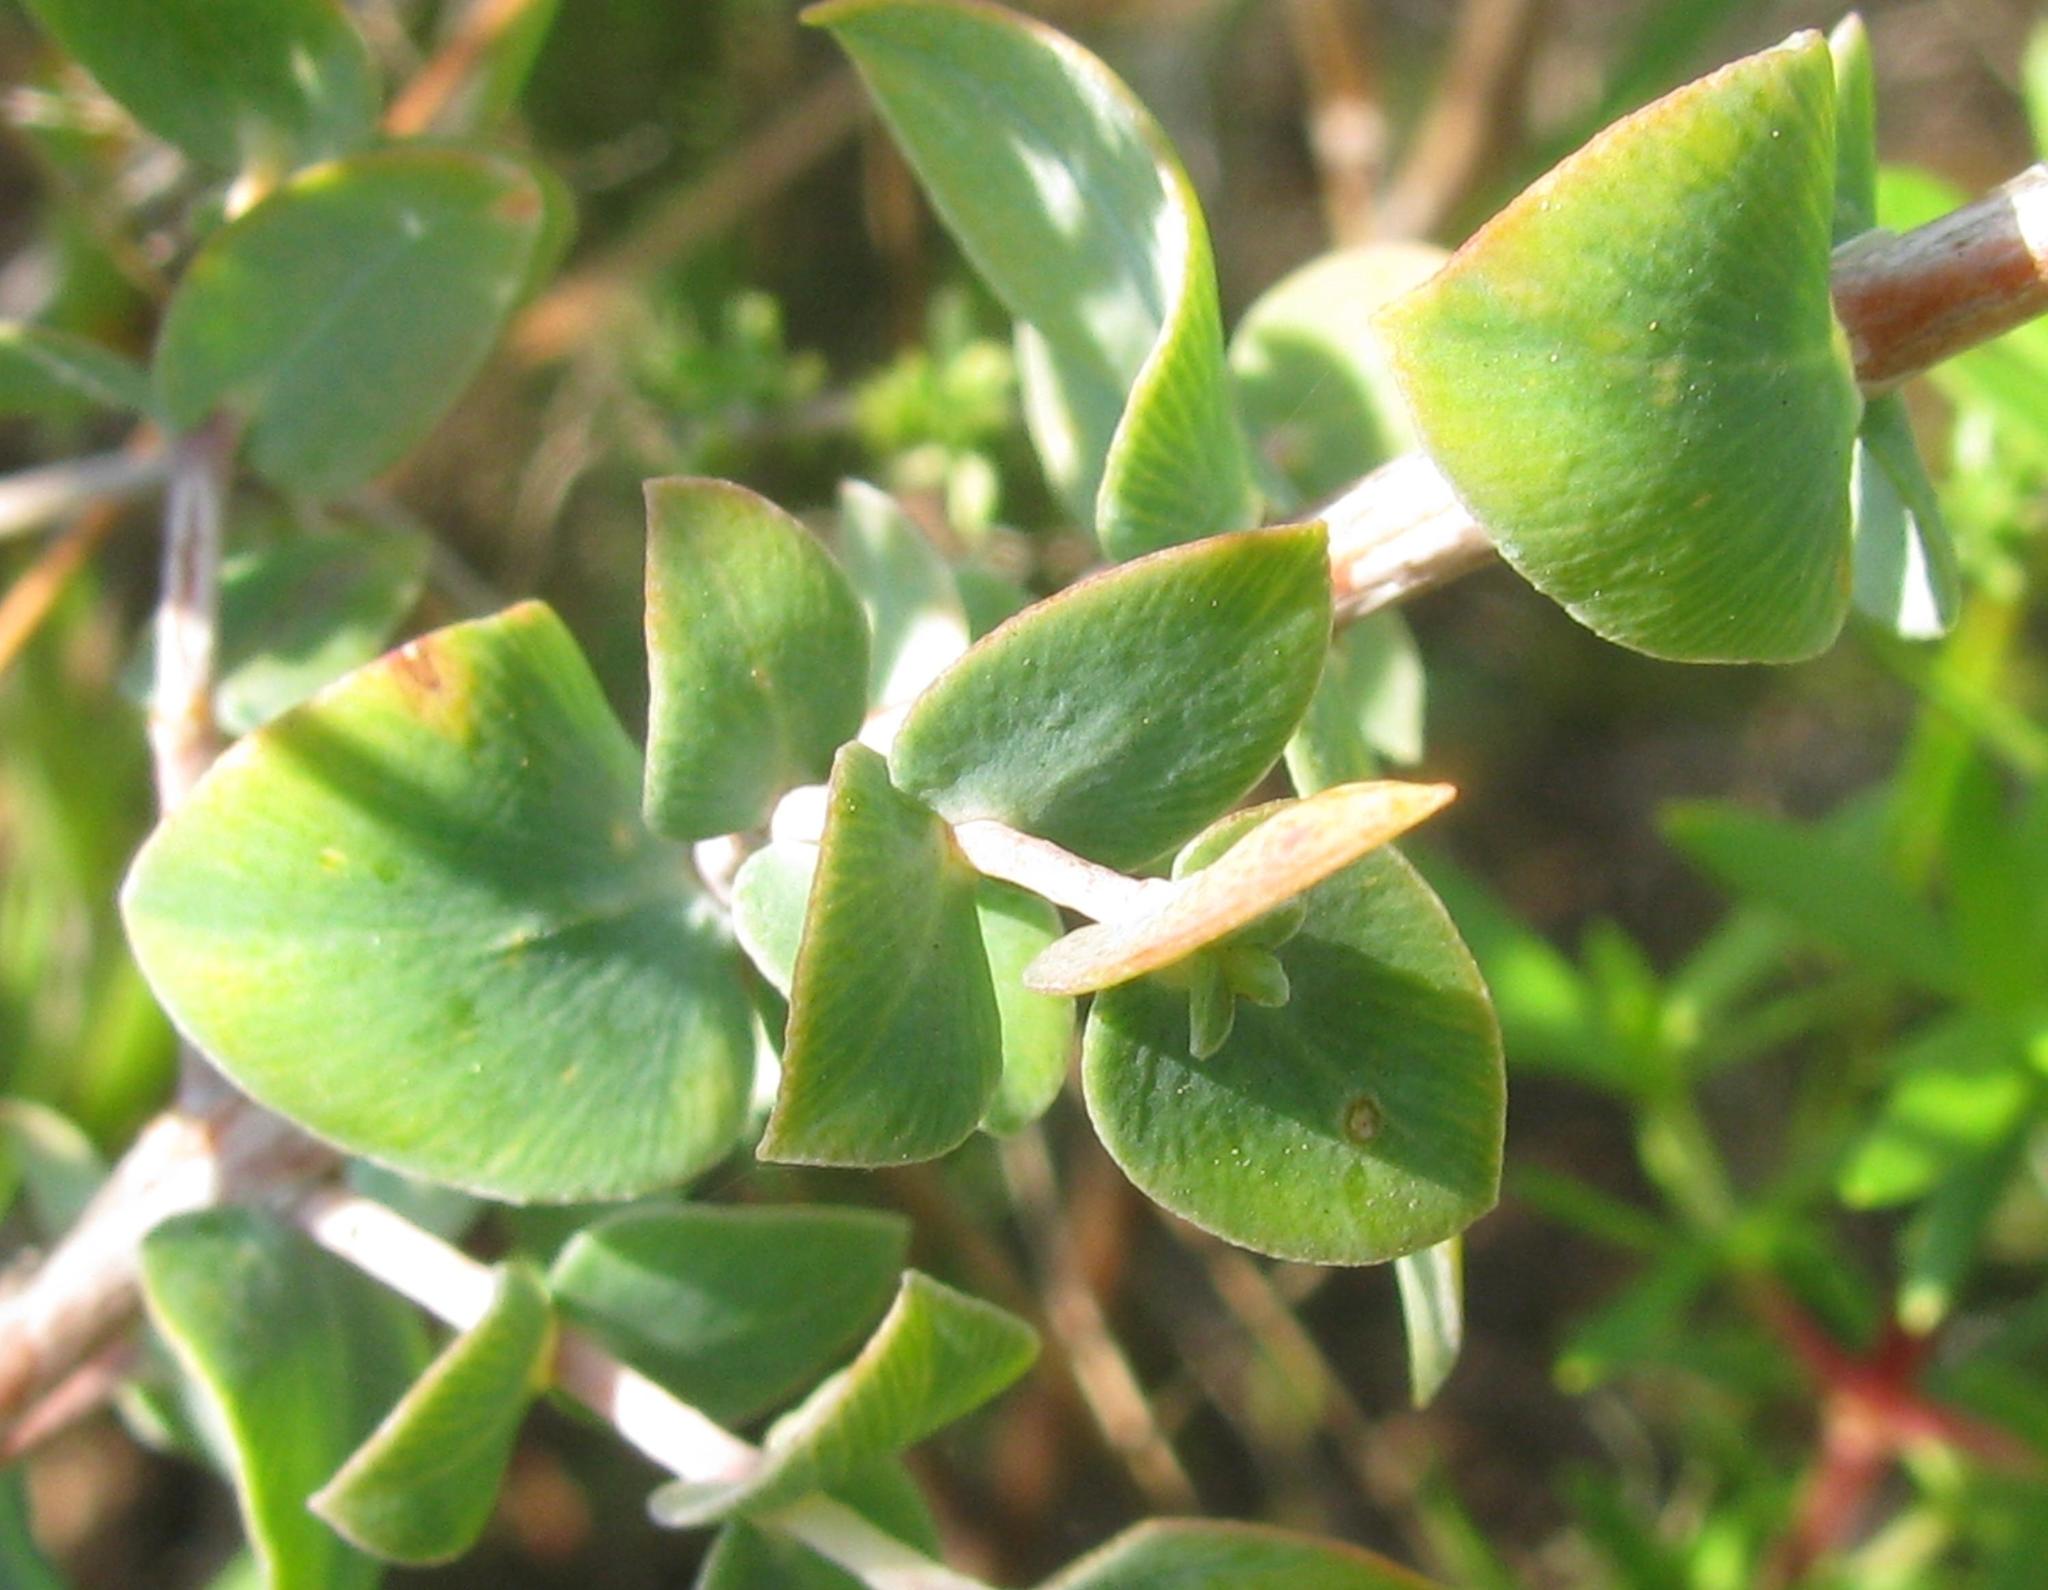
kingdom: Plantae
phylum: Tracheophyta
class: Magnoliopsida
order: Sapindales
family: Rutaceae
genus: Macrostylis
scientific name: Macrostylis barbigera
